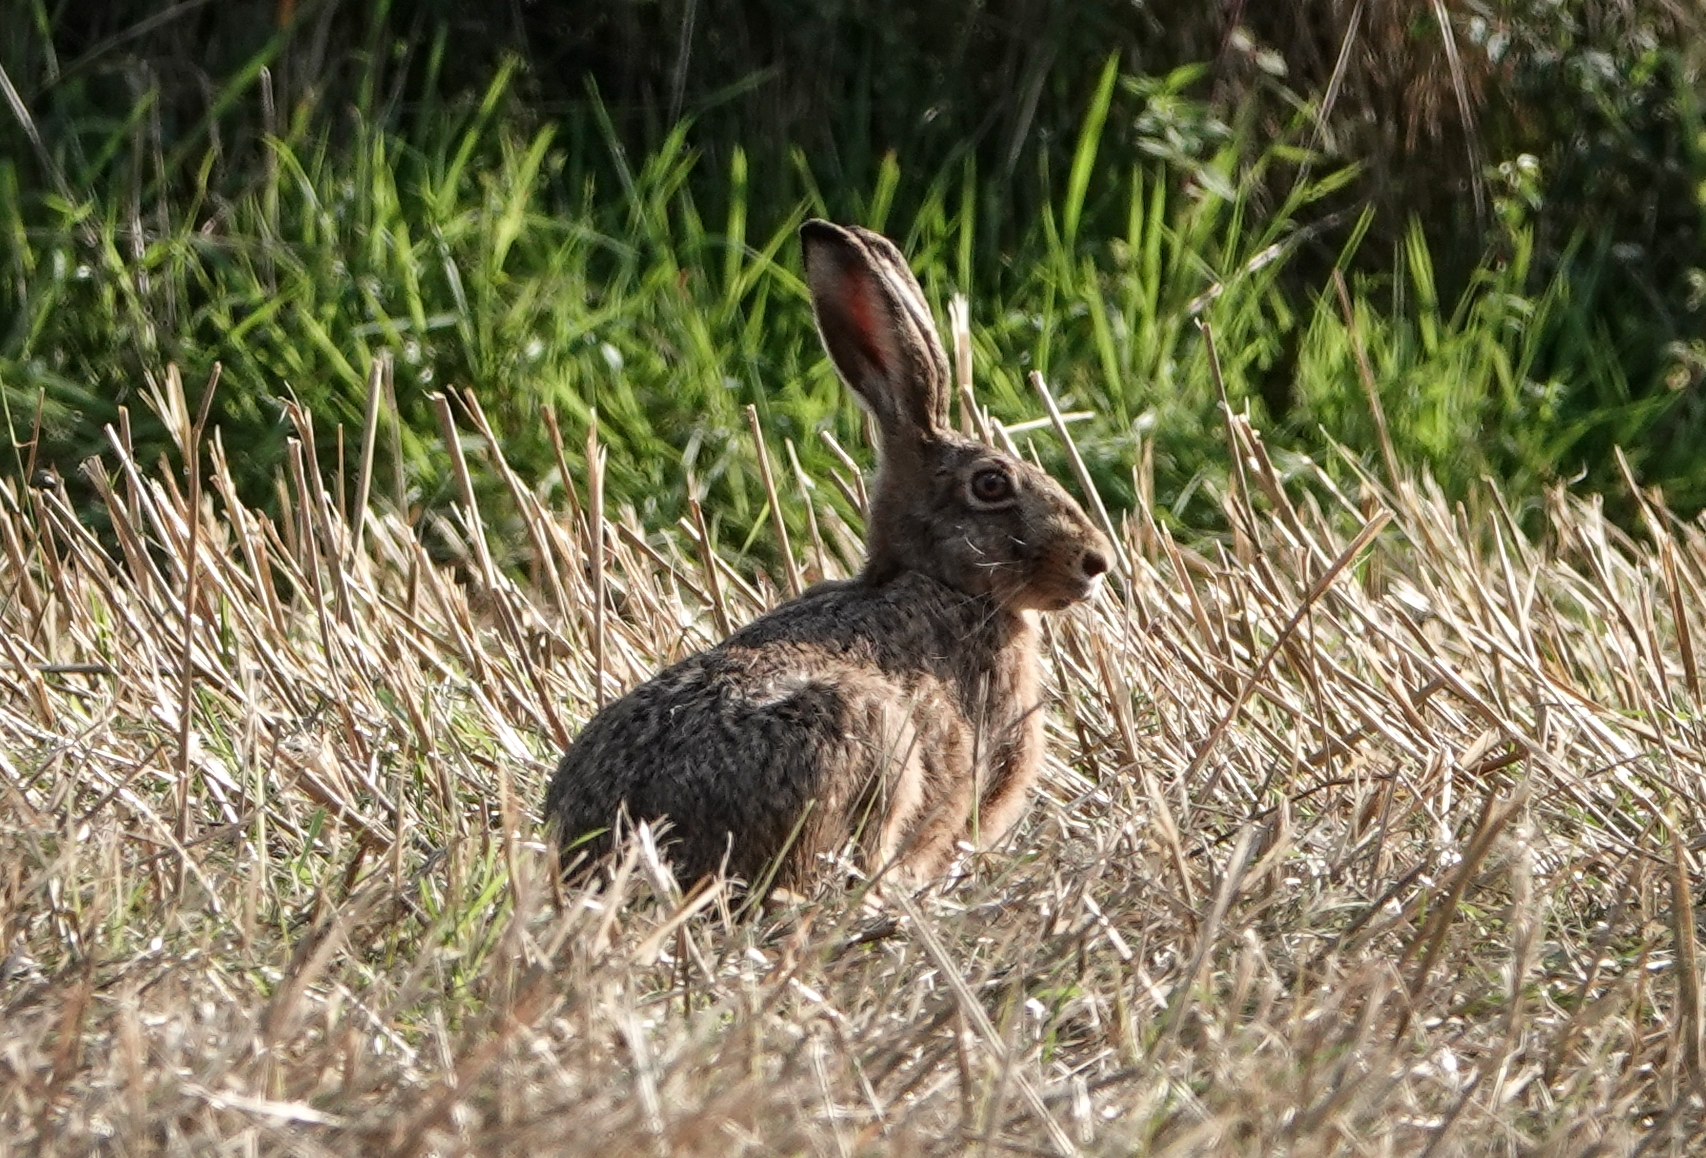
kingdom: Animalia
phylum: Chordata
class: Mammalia
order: Lagomorpha
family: Leporidae
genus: Lepus
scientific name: Lepus europaeus
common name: European hare
